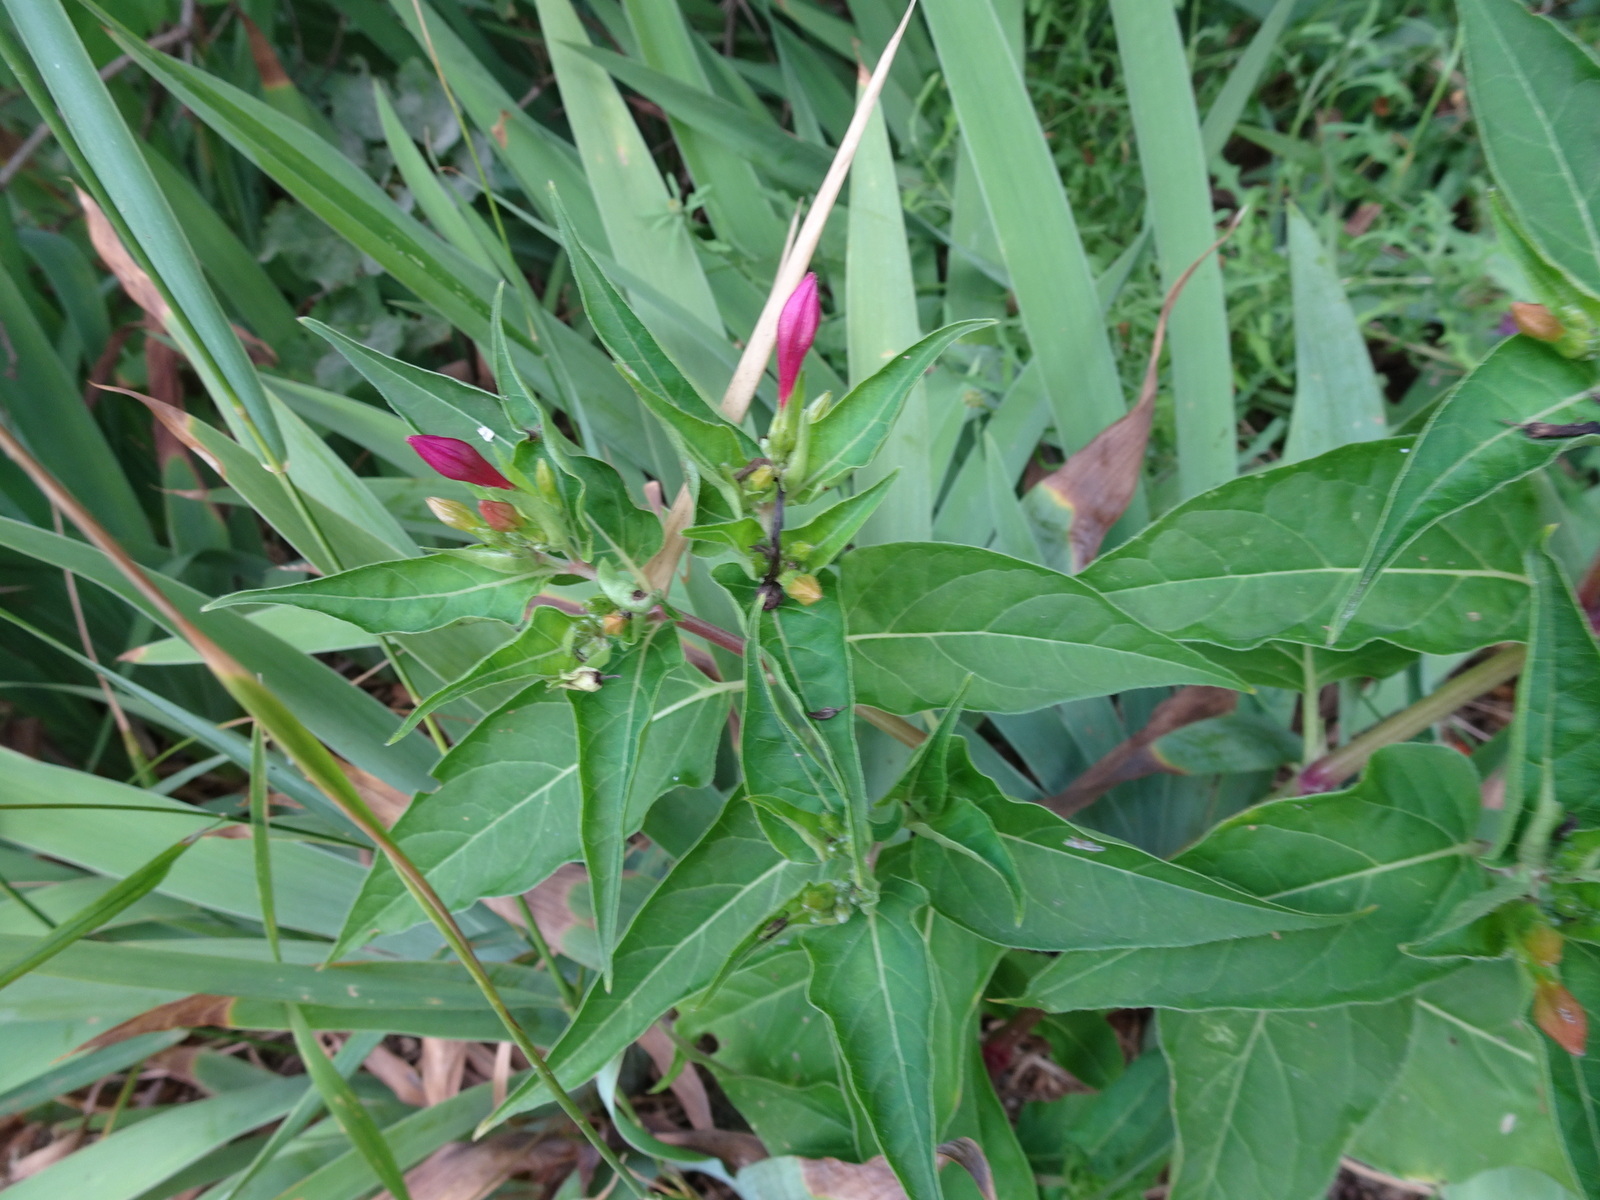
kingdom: Plantae
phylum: Tracheophyta
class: Magnoliopsida
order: Caryophyllales
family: Nyctaginaceae
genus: Mirabilis
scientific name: Mirabilis jalapa
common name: Marvel-of-peru
